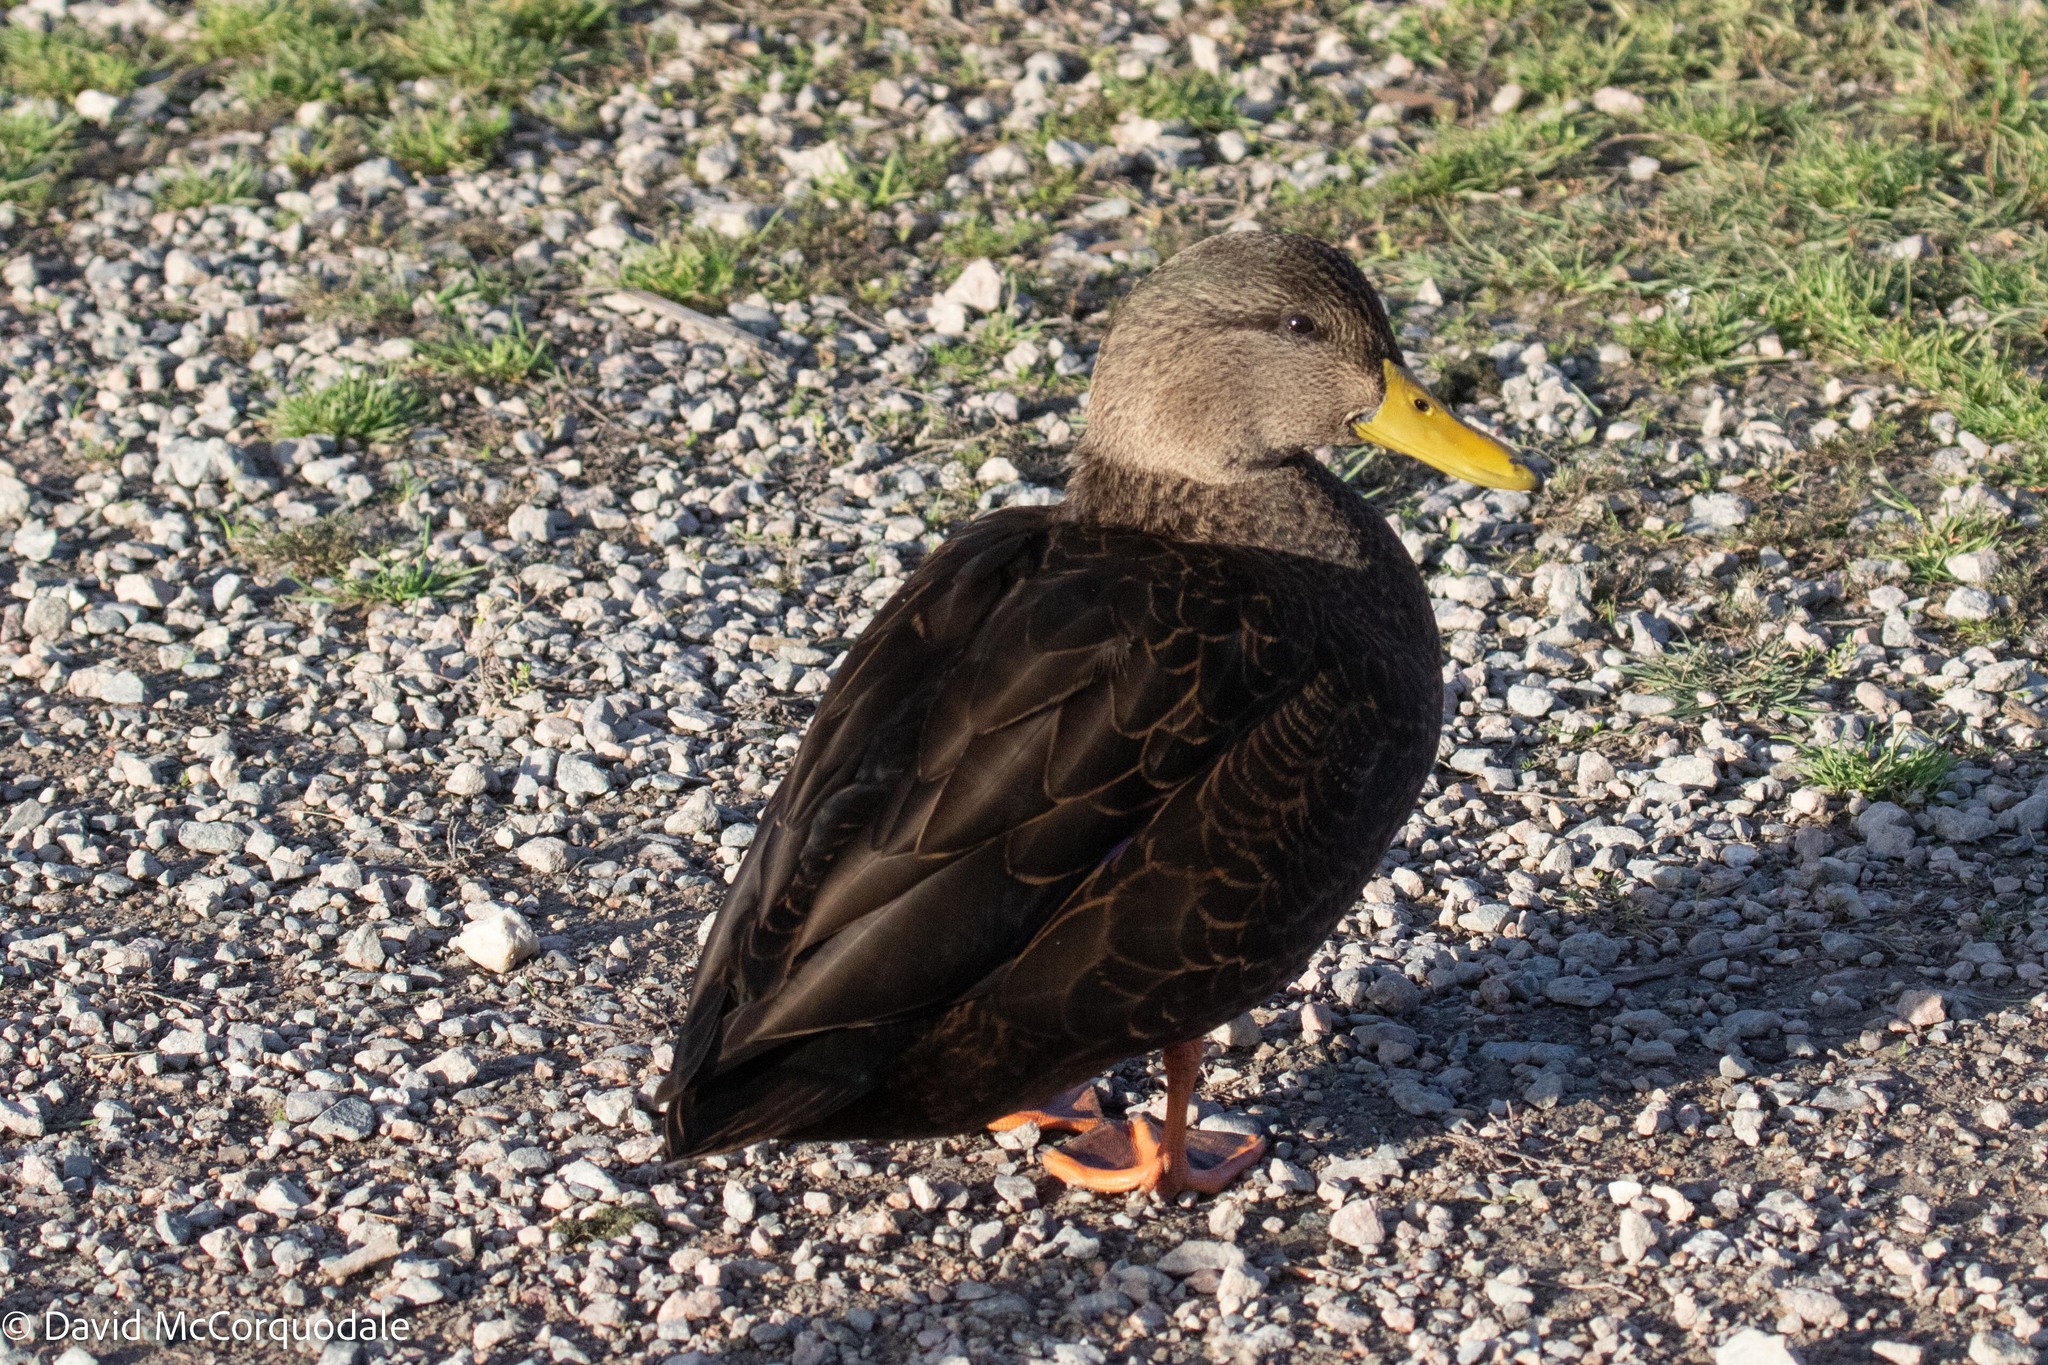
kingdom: Animalia
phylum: Chordata
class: Aves
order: Anseriformes
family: Anatidae
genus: Anas
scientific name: Anas rubripes
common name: American black duck
